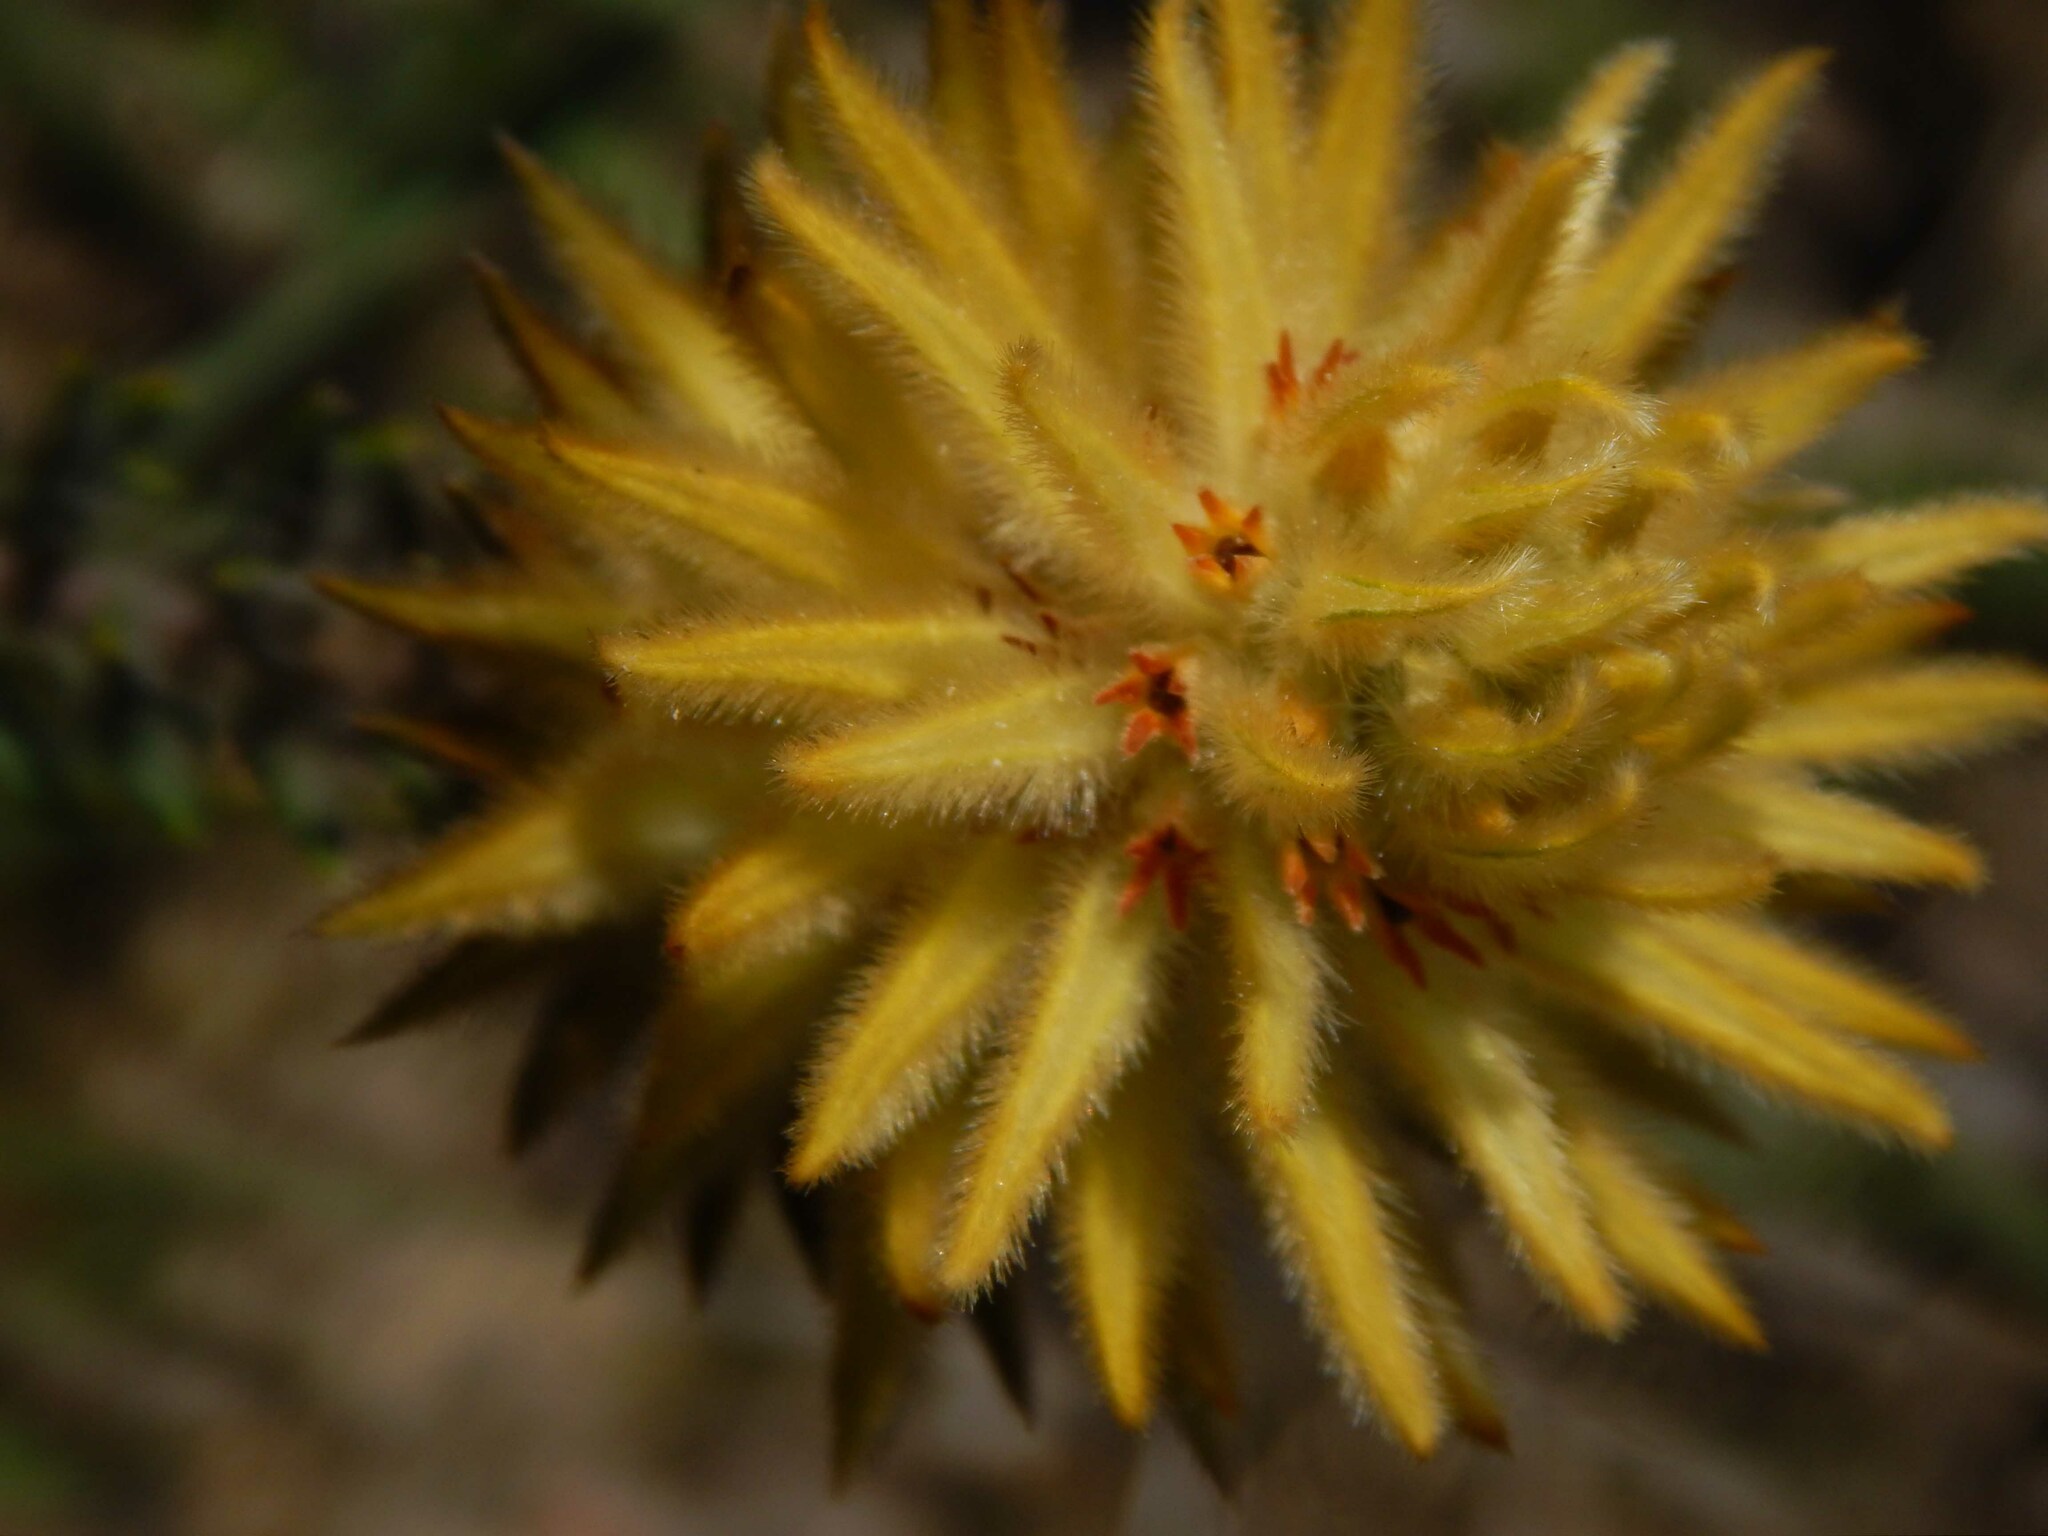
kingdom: Plantae
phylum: Tracheophyta
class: Magnoliopsida
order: Rosales
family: Rhamnaceae
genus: Phylica
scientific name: Phylica plumosa
